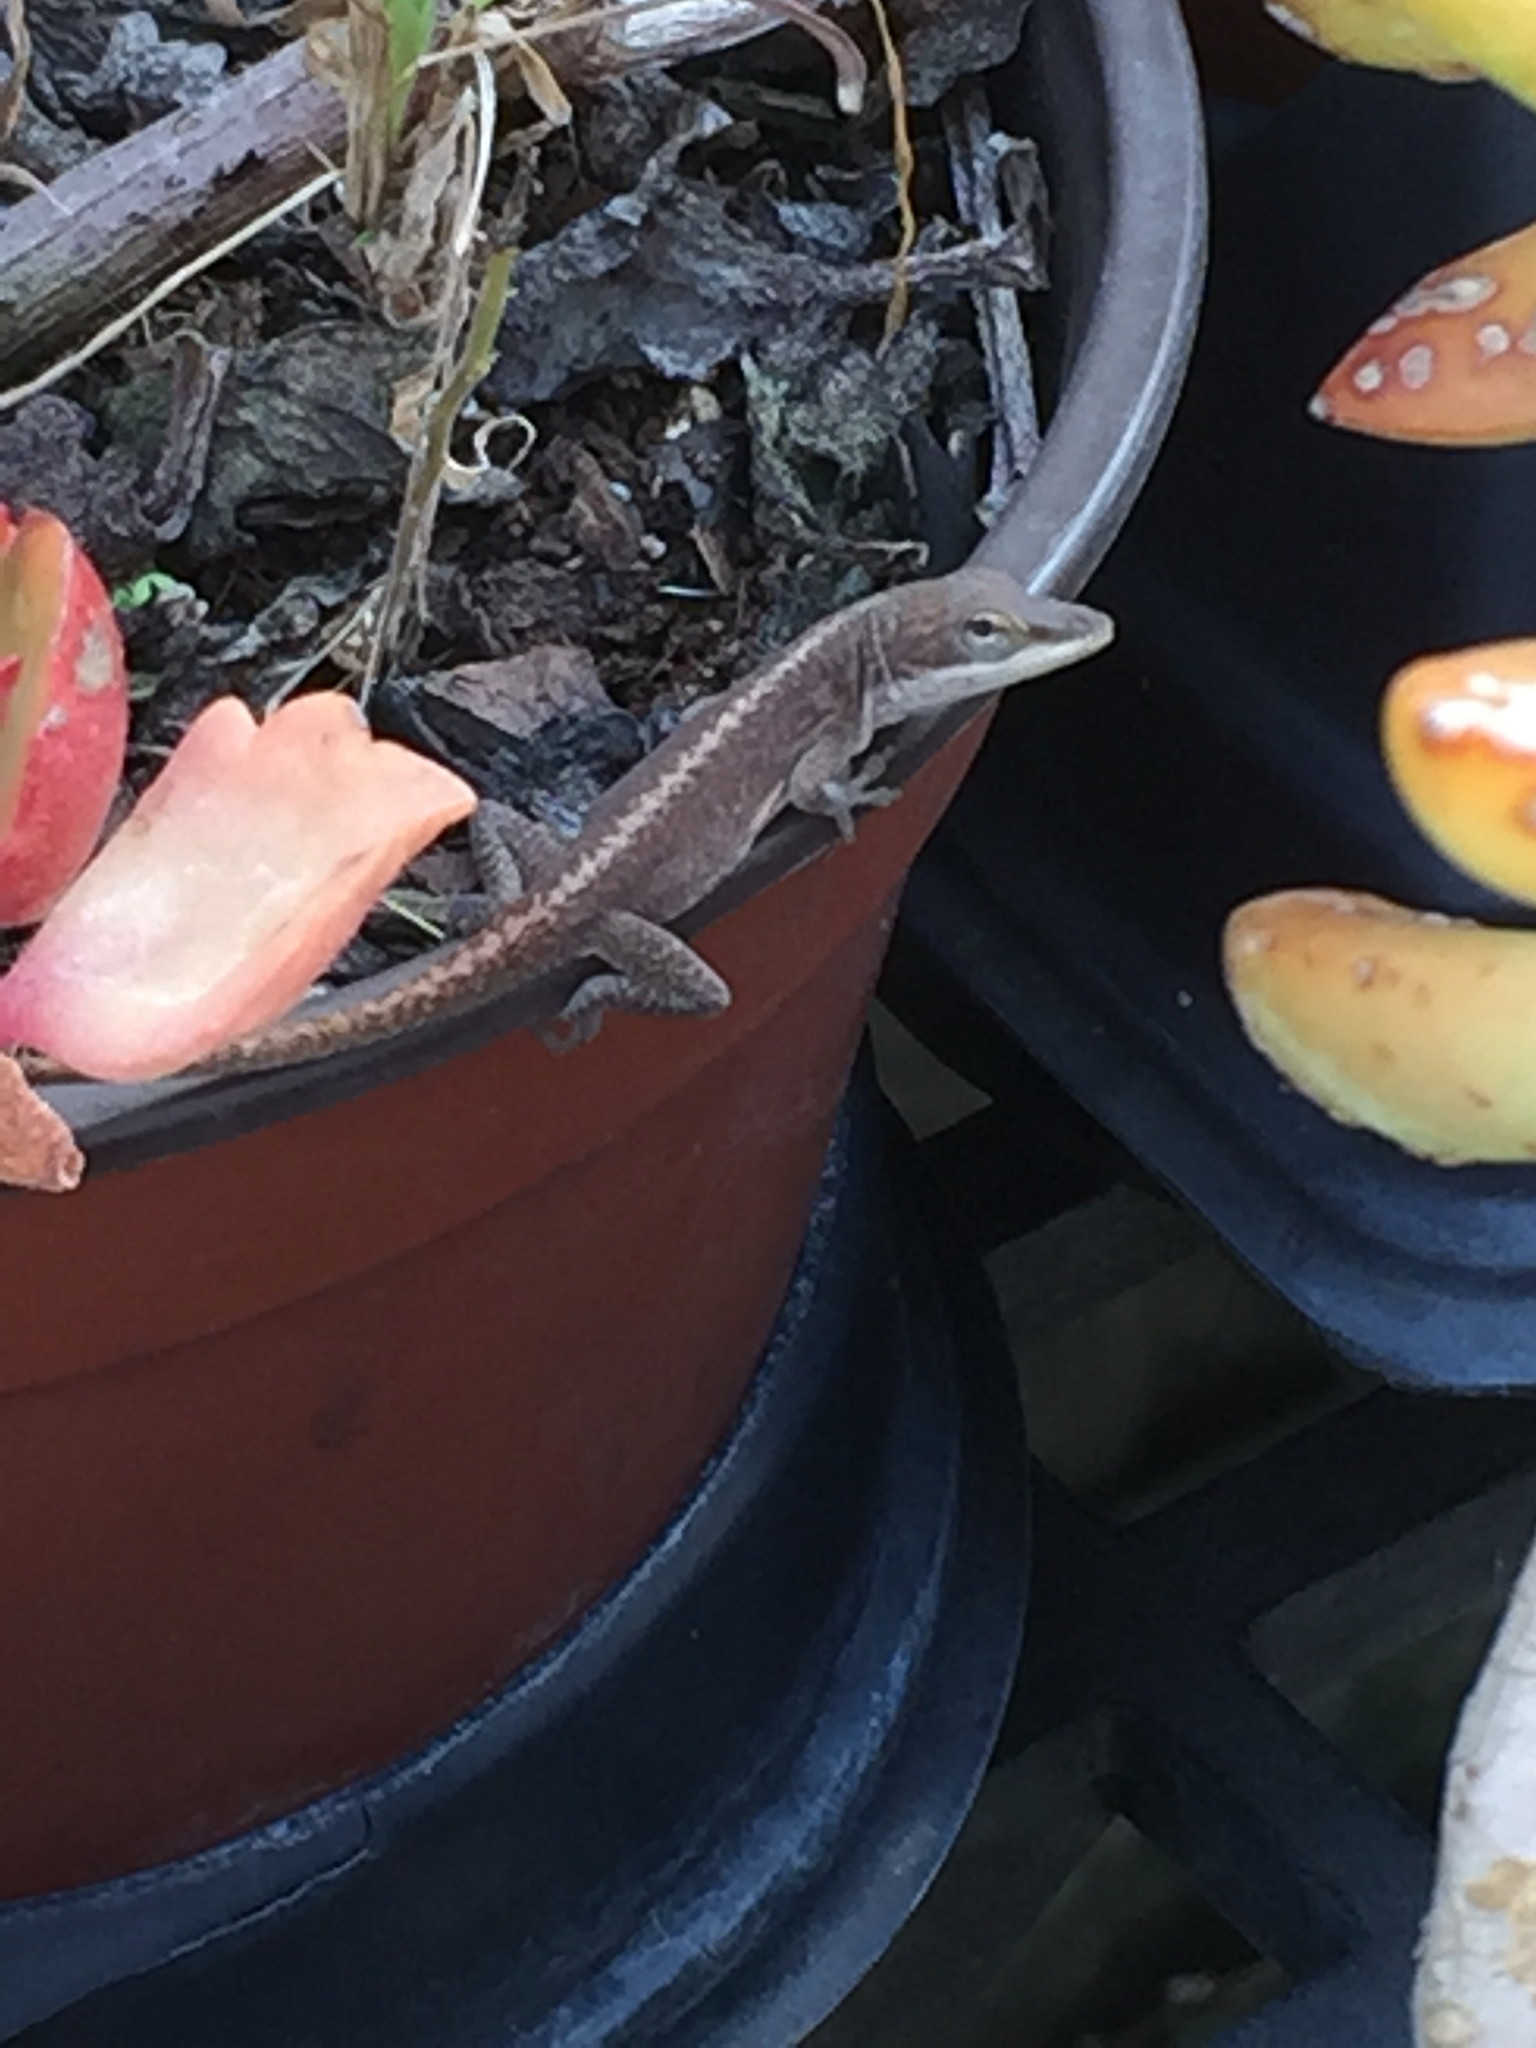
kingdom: Animalia
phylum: Chordata
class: Squamata
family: Dactyloidae
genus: Anolis
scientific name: Anolis carolinensis
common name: Green anole
